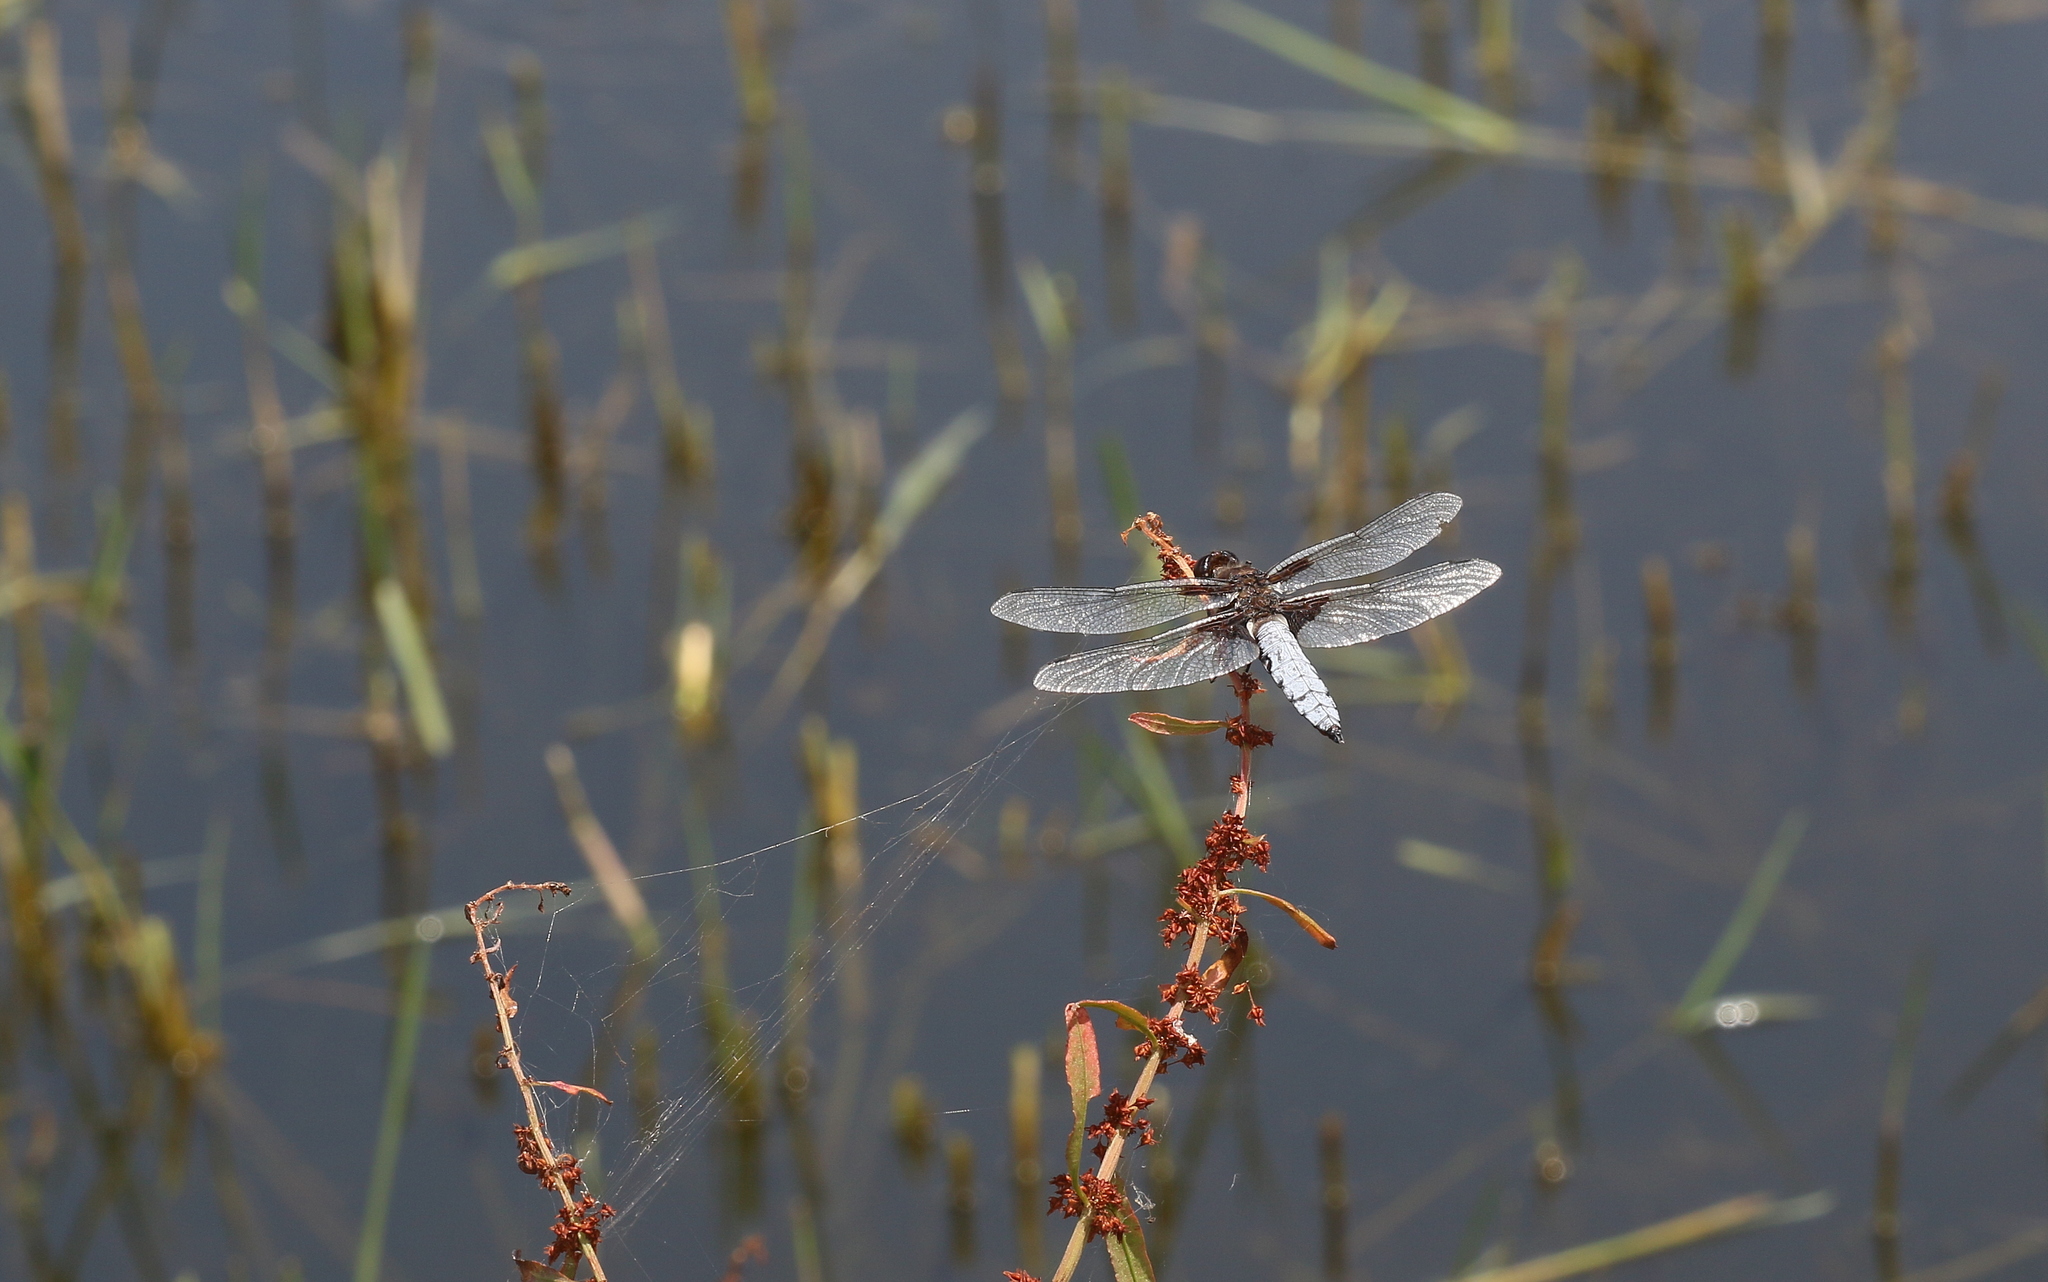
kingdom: Animalia
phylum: Arthropoda
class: Insecta
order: Odonata
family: Libellulidae
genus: Libellula
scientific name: Libellula depressa
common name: Broad-bodied chaser
